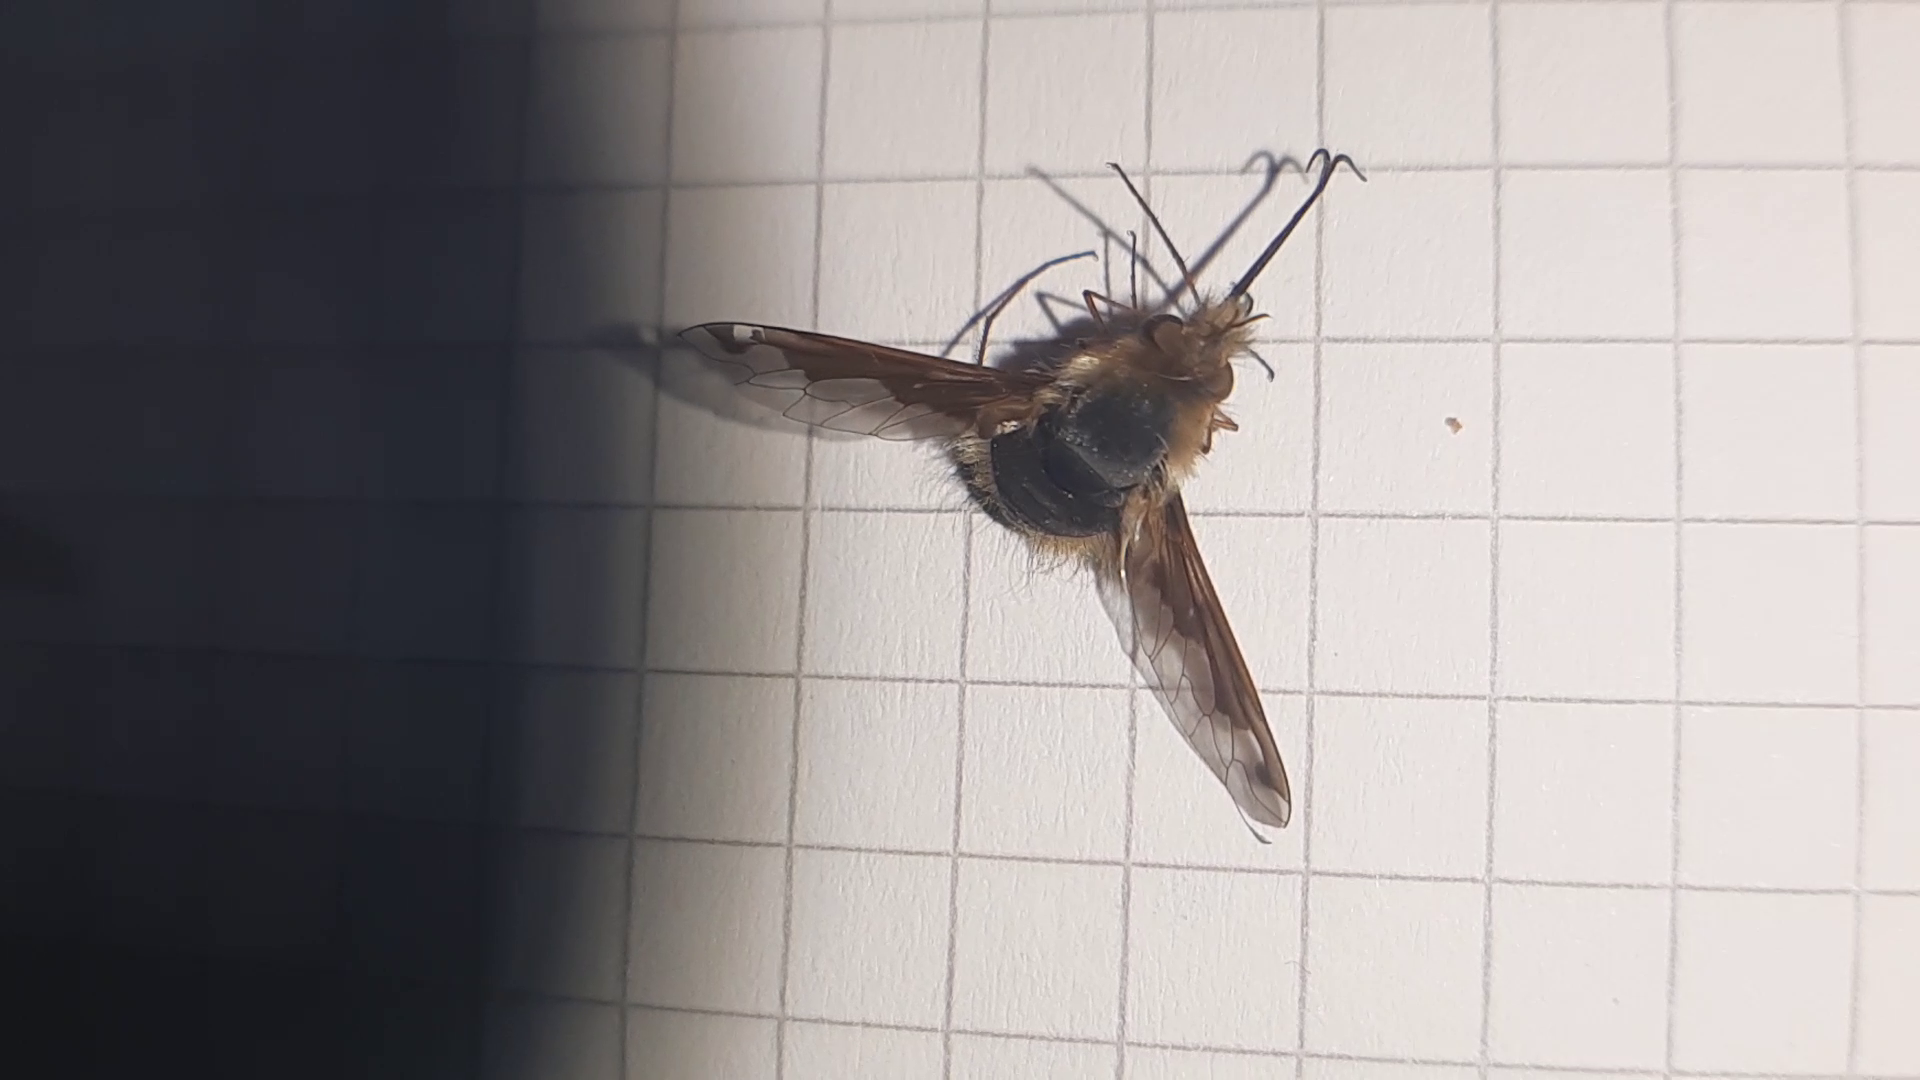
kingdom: Animalia
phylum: Arthropoda
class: Insecta
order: Diptera
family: Bombyliidae
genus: Bombylius
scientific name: Bombylius major
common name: Bee fly
